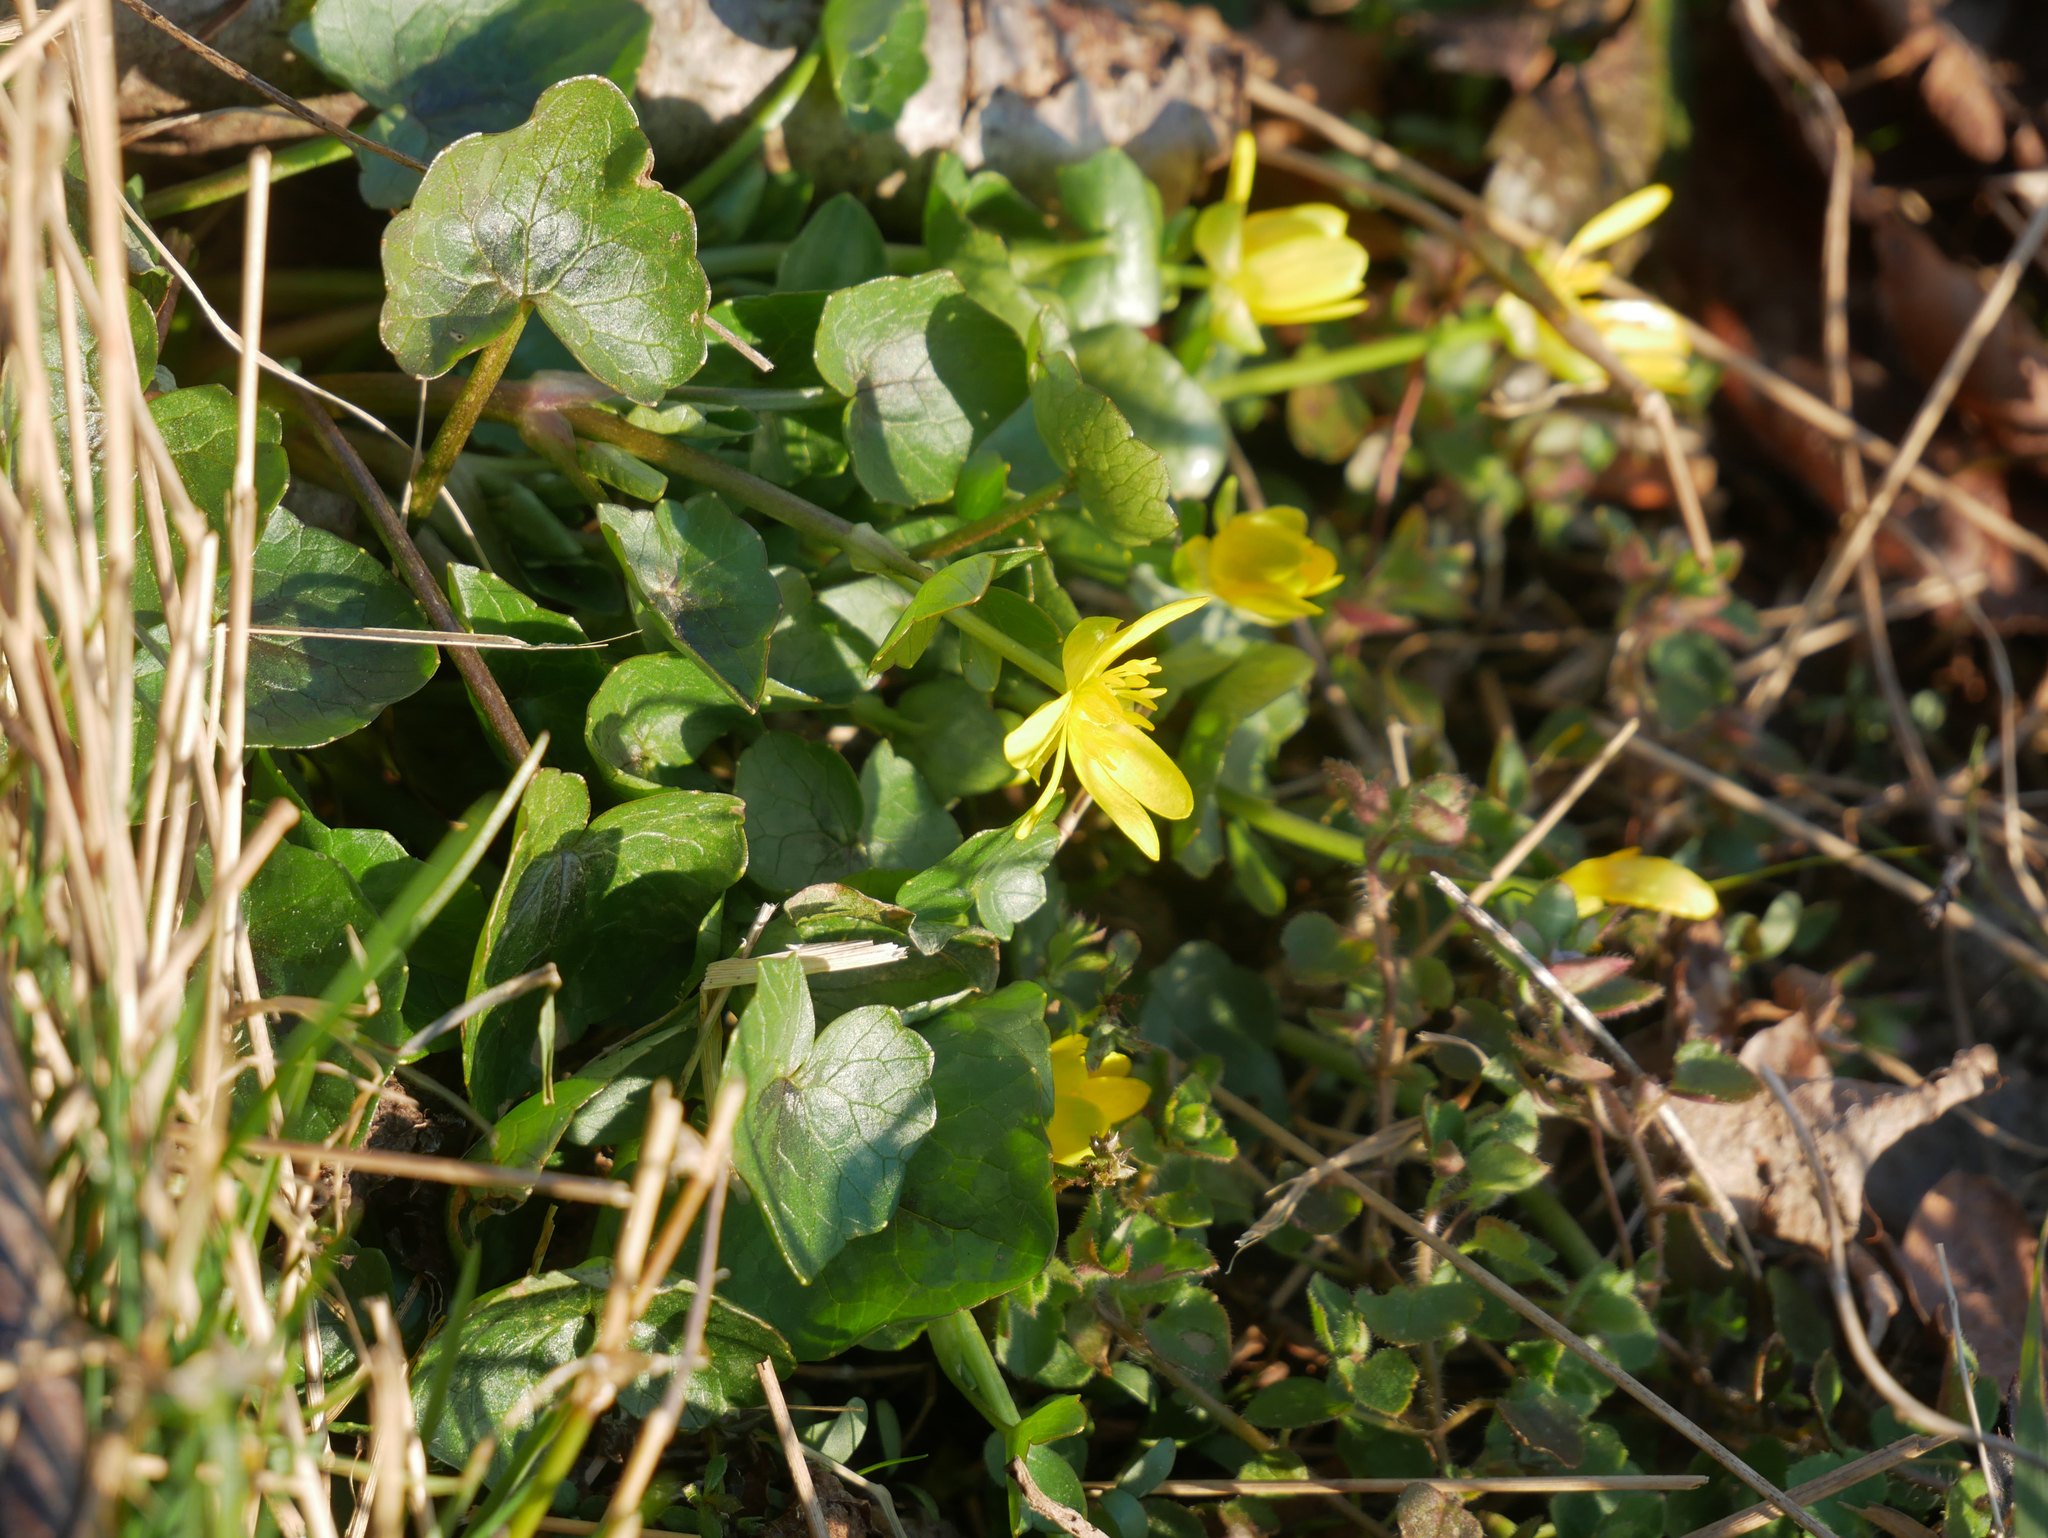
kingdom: Plantae
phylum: Tracheophyta
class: Magnoliopsida
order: Ranunculales
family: Ranunculaceae
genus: Ficaria
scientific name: Ficaria verna
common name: Lesser celandine
